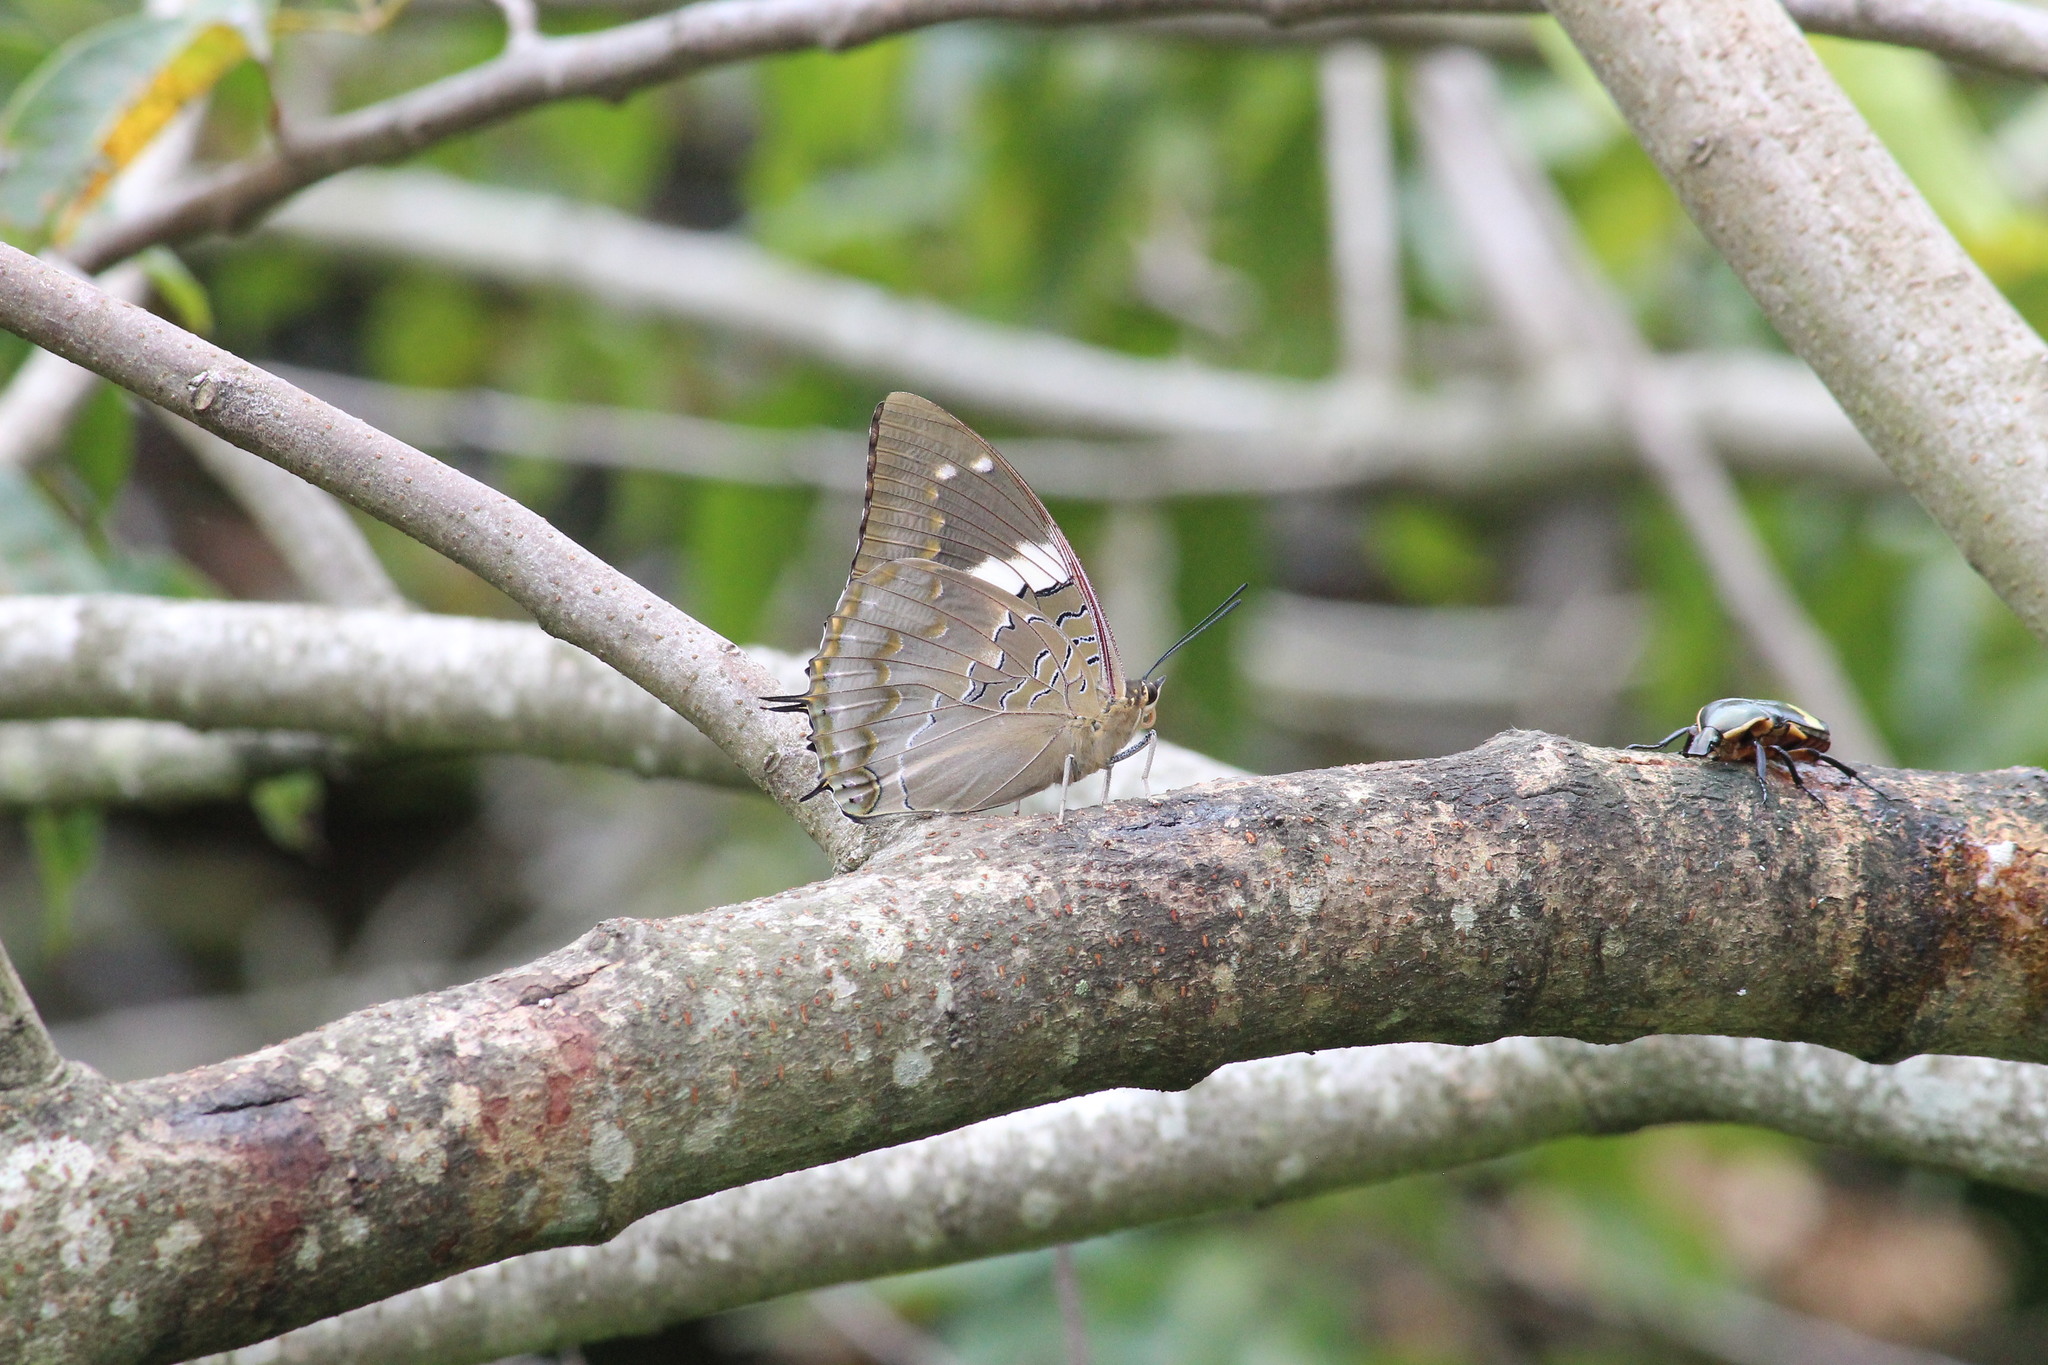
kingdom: Animalia
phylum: Arthropoda
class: Insecta
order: Lepidoptera
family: Nymphalidae
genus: Charaxes
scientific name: Charaxes cithaeron
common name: Blue-spotted charaxes
